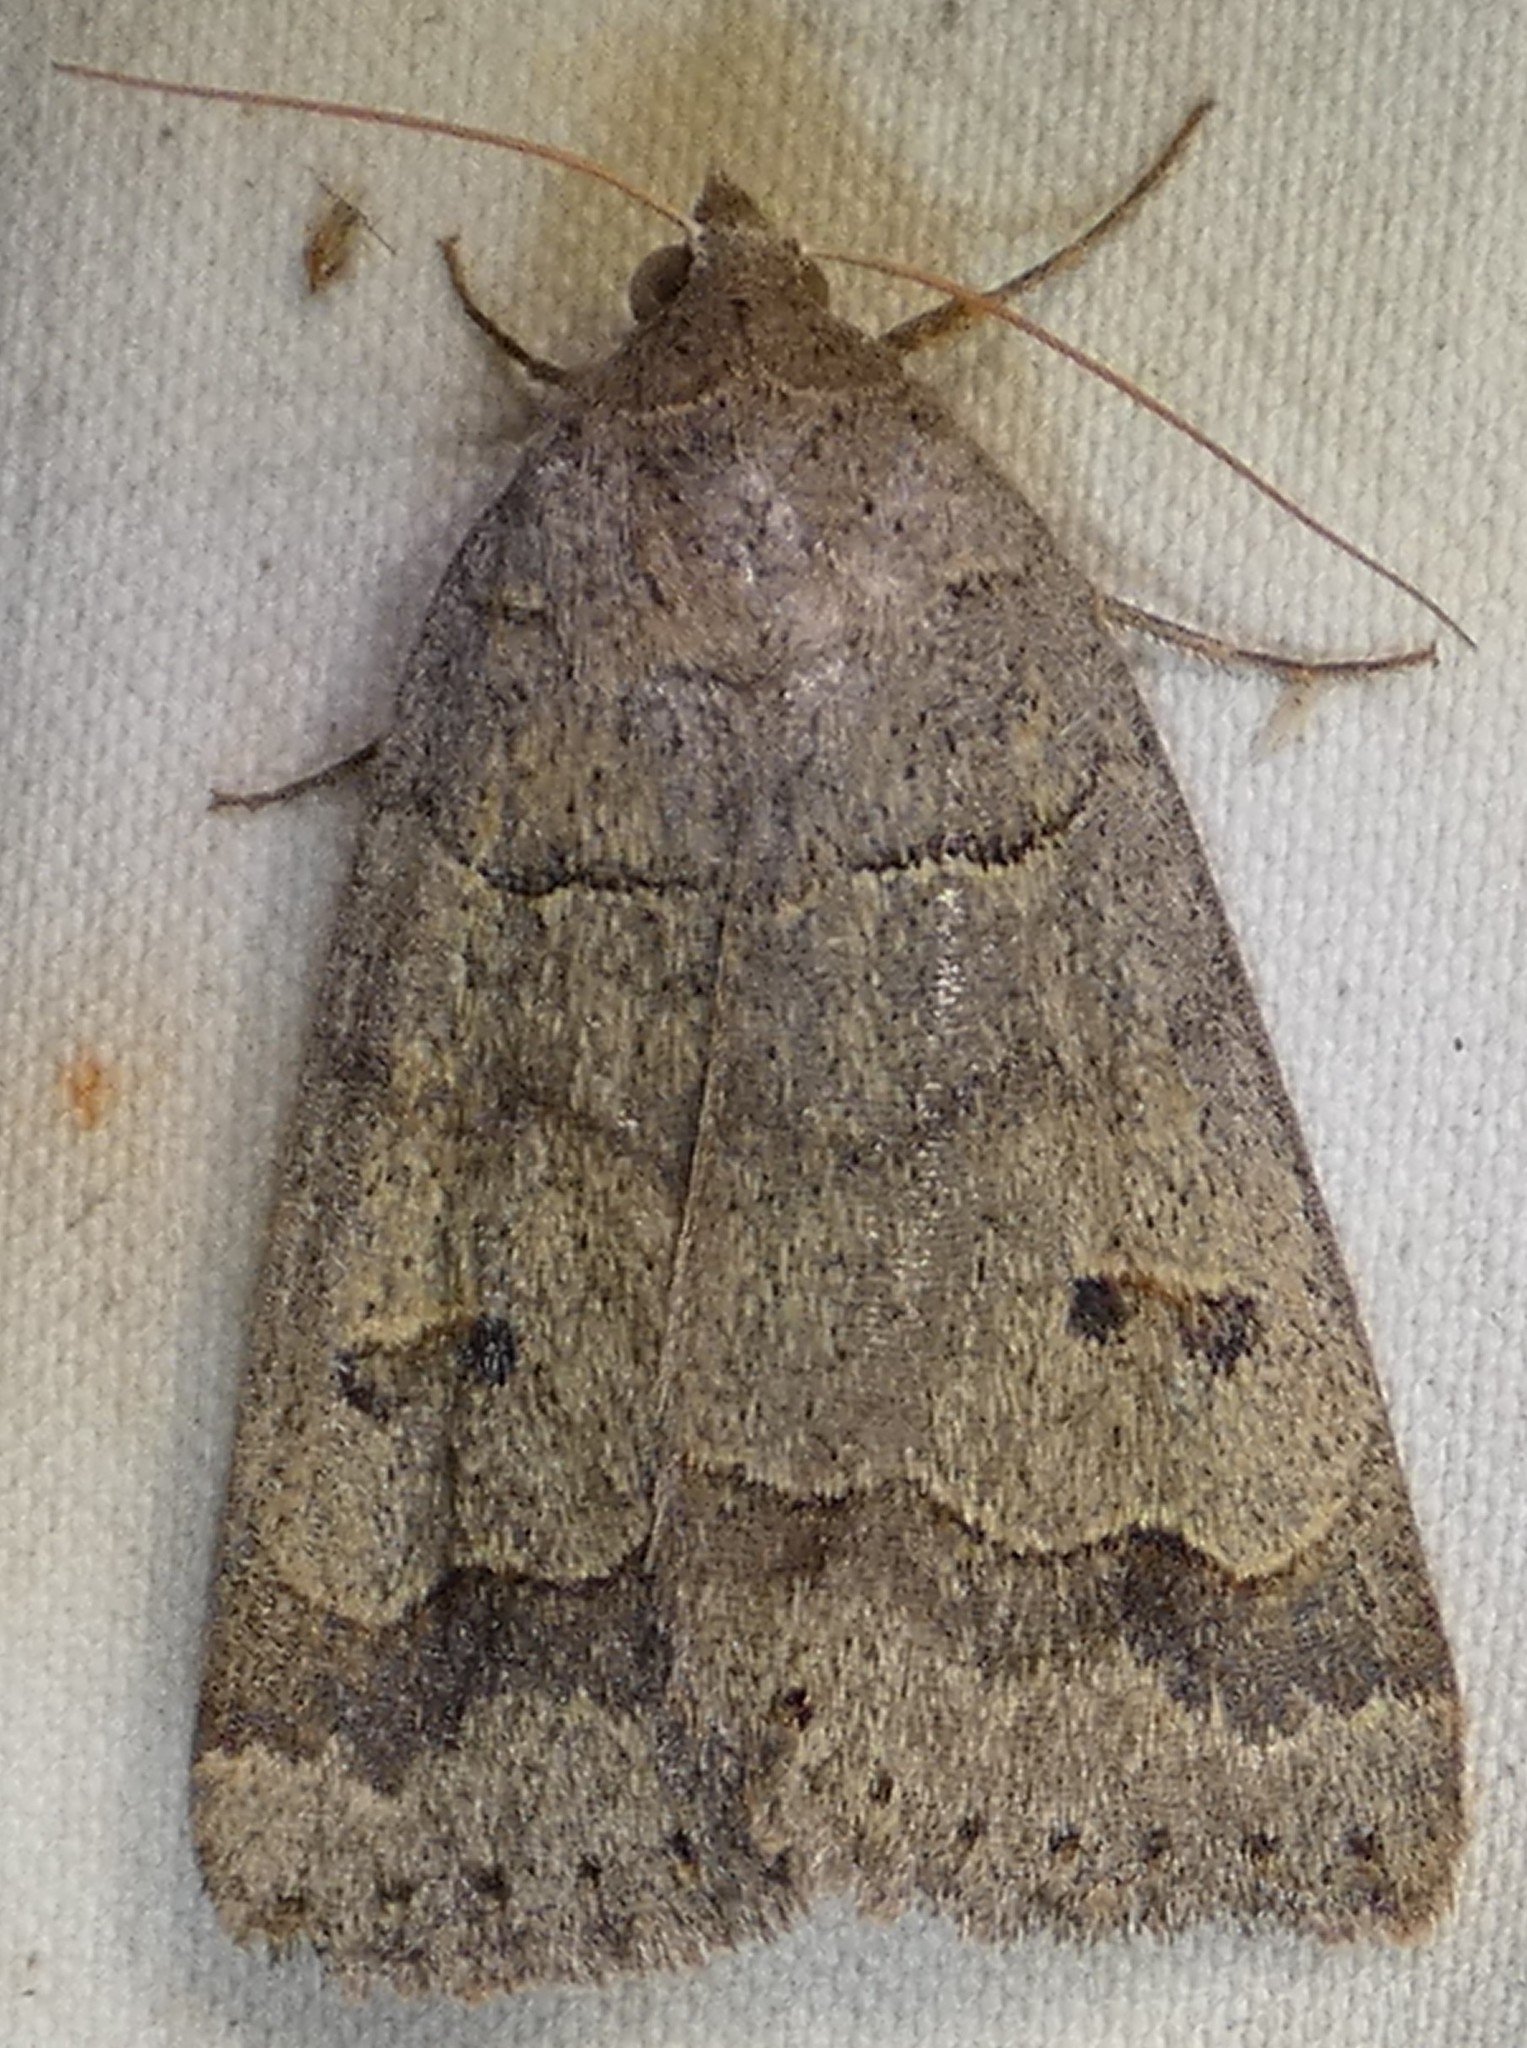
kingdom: Animalia
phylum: Arthropoda
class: Insecta
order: Lepidoptera
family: Erebidae
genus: Phoberia
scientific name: Phoberia atomaris
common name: Common oak moth
